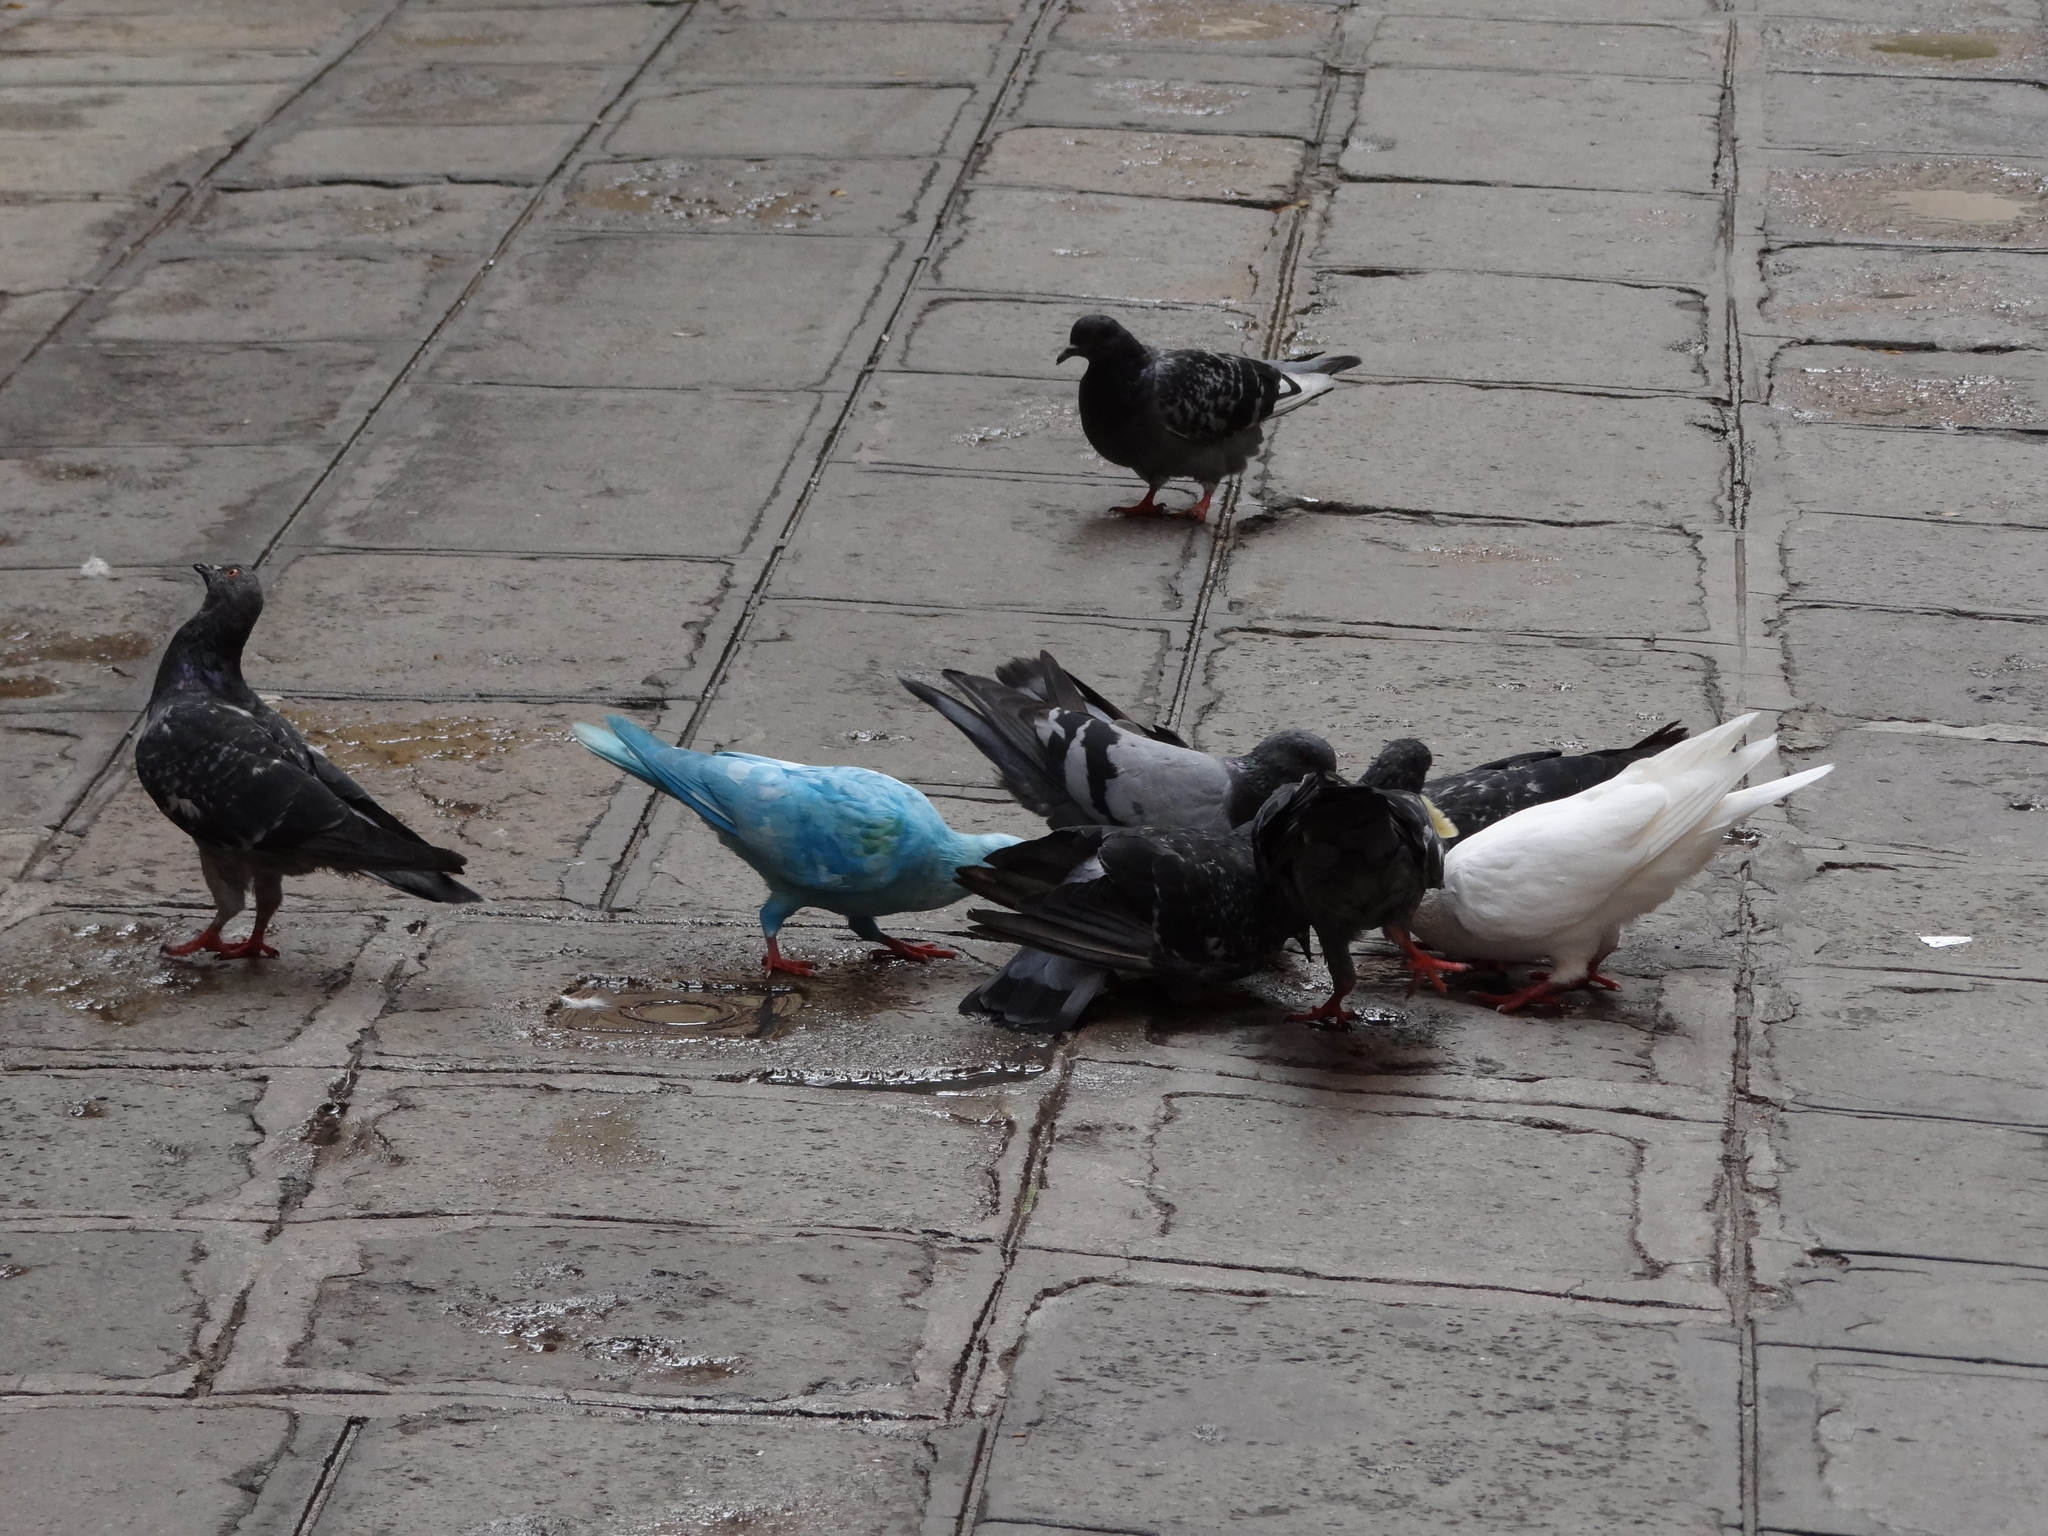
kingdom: Animalia
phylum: Chordata
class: Aves
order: Columbiformes
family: Columbidae
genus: Columba
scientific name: Columba livia
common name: Rock pigeon
